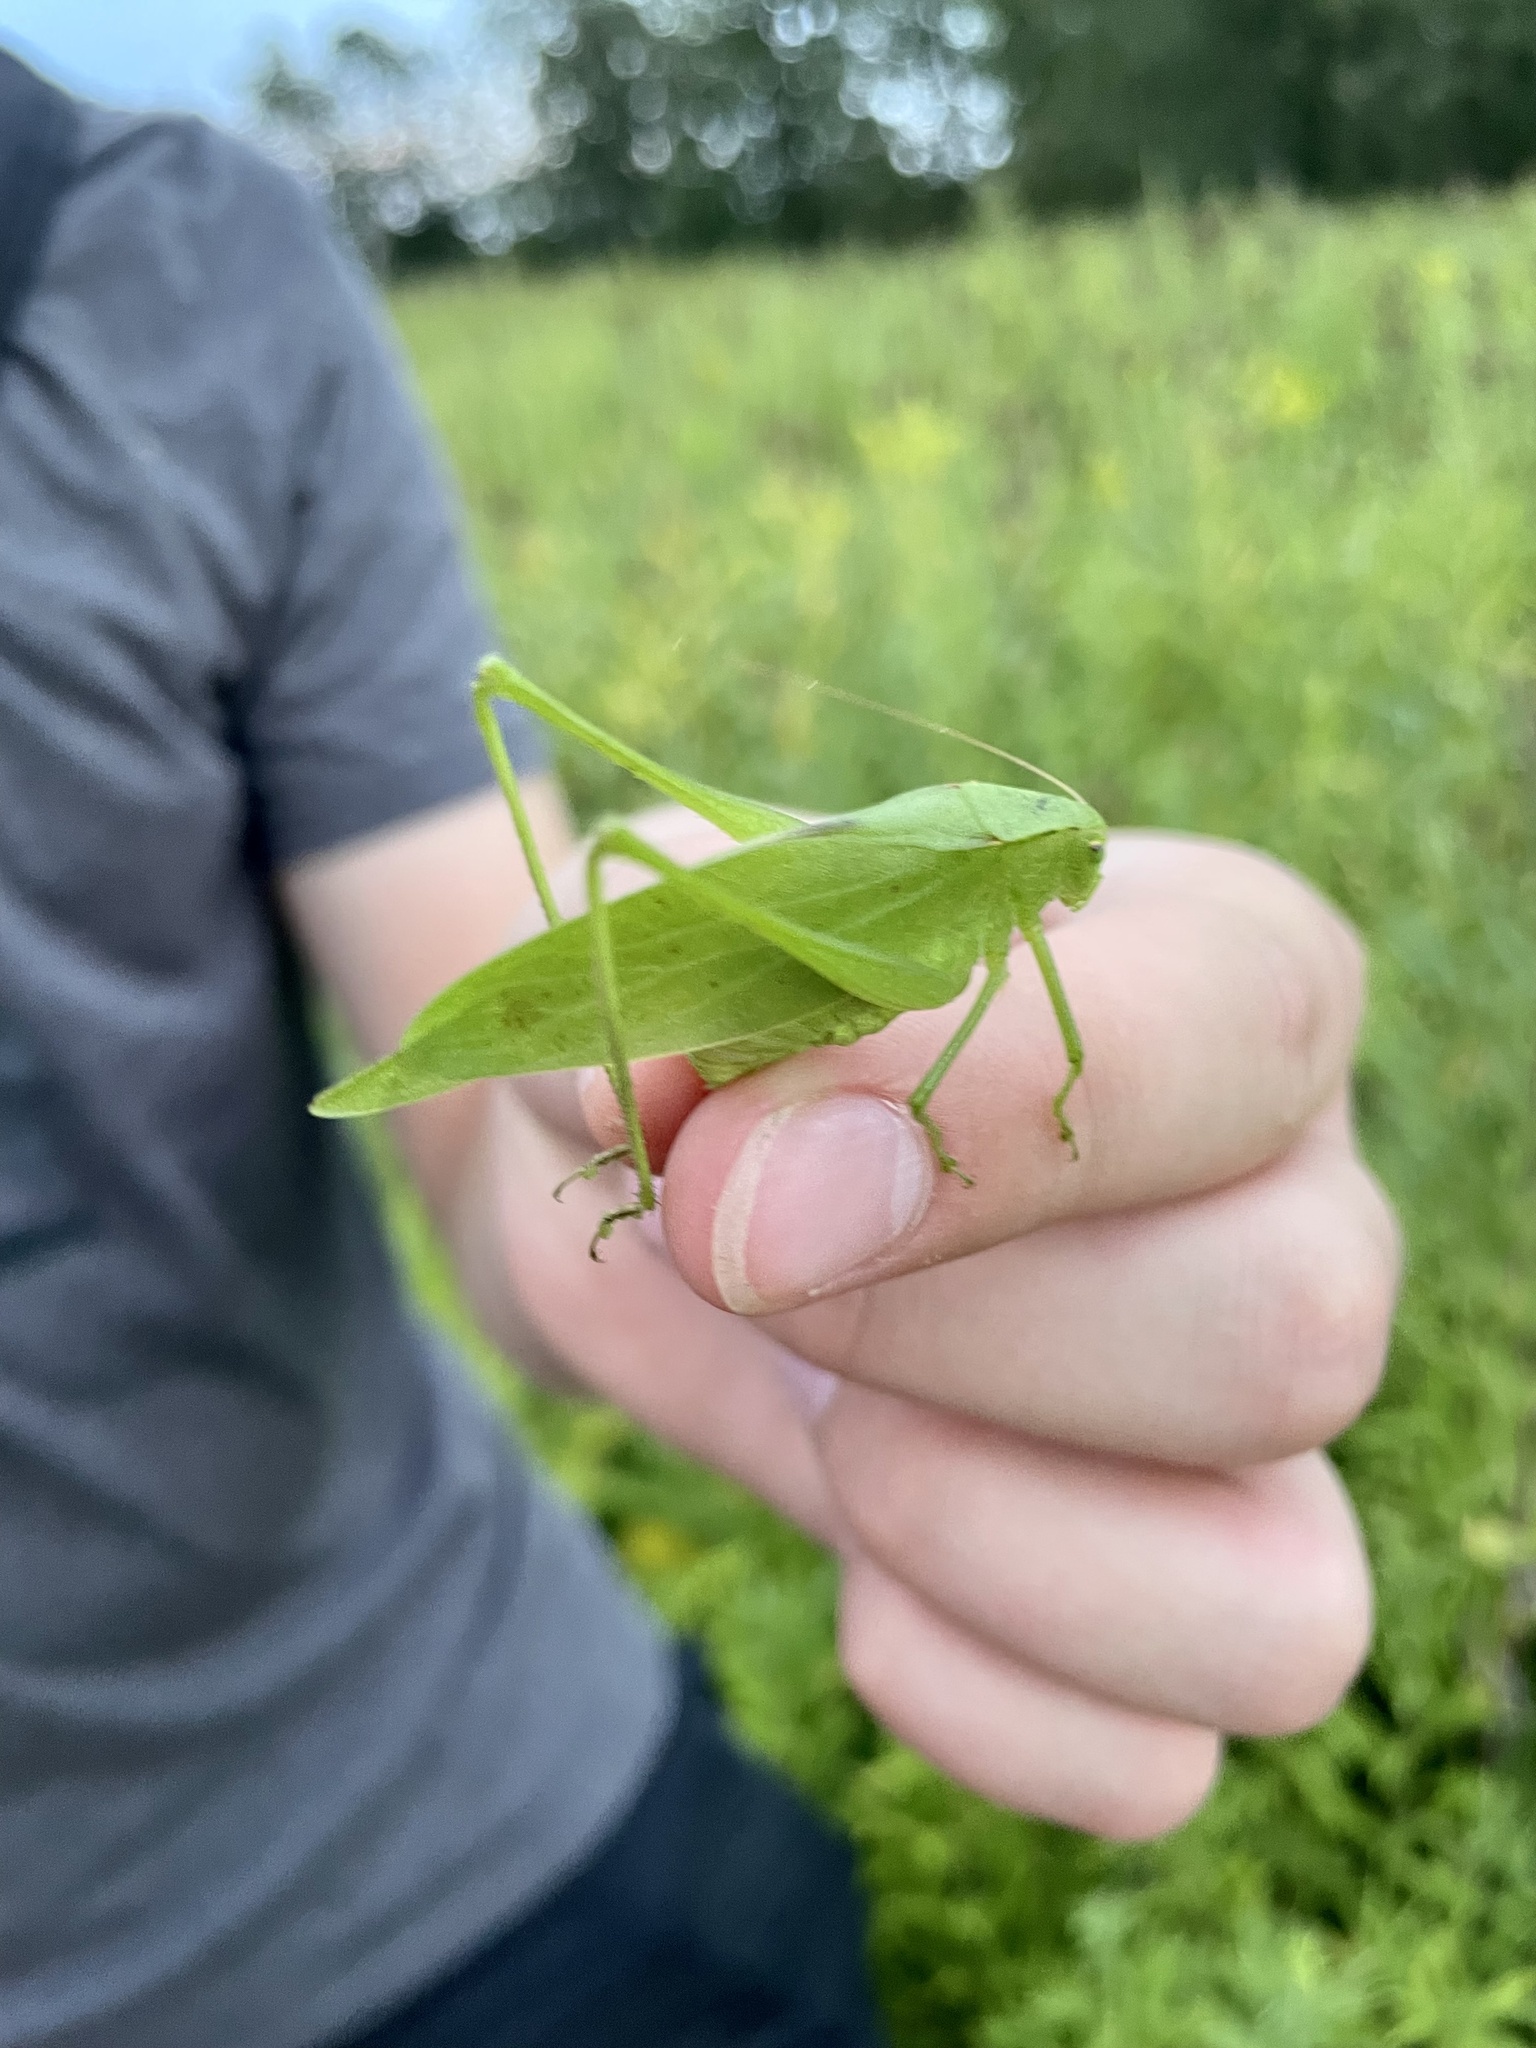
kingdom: Animalia
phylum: Arthropoda
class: Insecta
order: Orthoptera
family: Tettigoniidae
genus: Amblycorypha
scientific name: Amblycorypha oblongifolia
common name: Oblong-winged katydid
